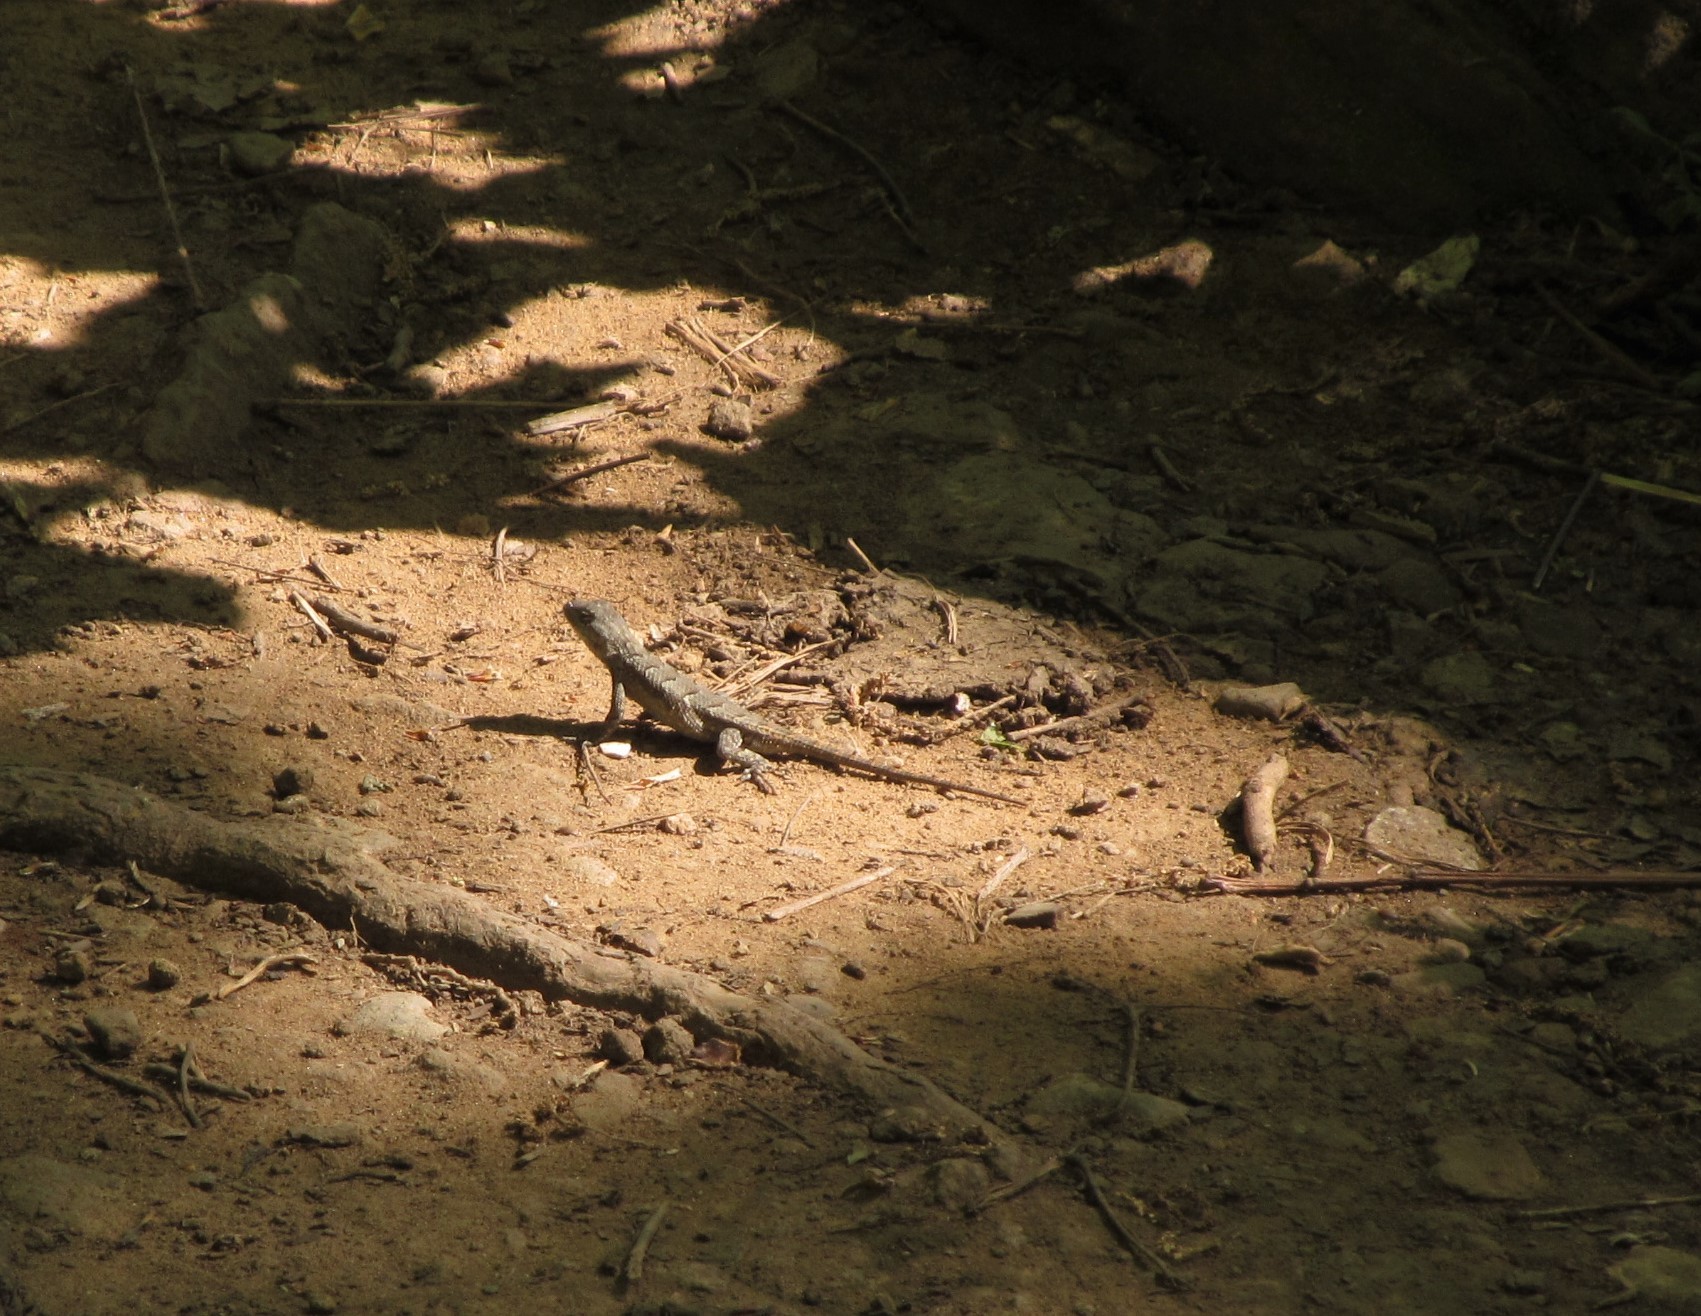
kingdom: Animalia
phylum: Chordata
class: Squamata
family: Phrynosomatidae
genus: Sceloporus
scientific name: Sceloporus consobrinus
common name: Southern prairie lizard
